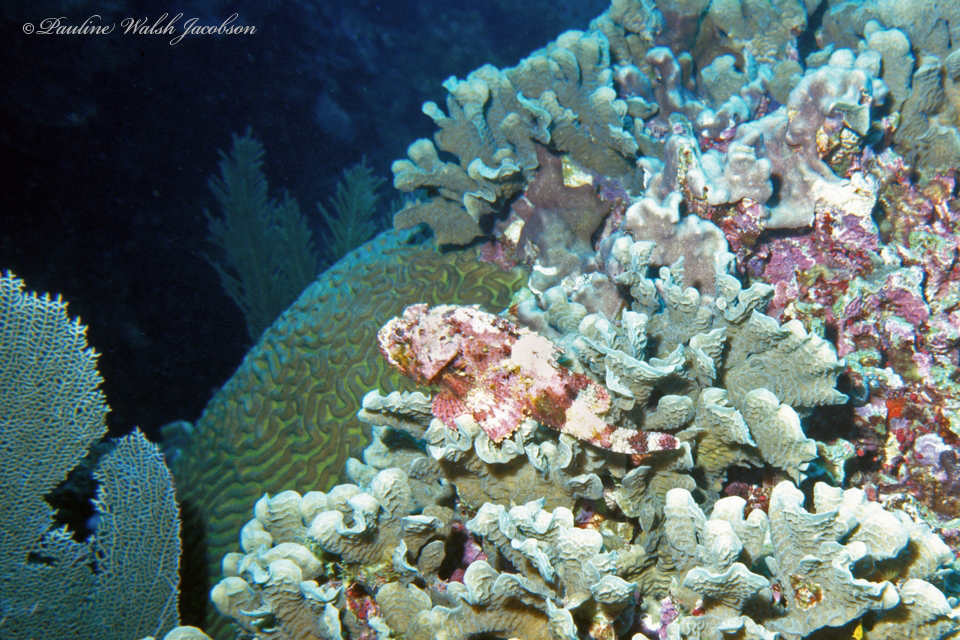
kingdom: Animalia
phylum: Chordata
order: Scorpaeniformes
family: Scorpaenidae
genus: Scorpaena
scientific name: Scorpaena plumieri
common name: Spotted scorpionfish
